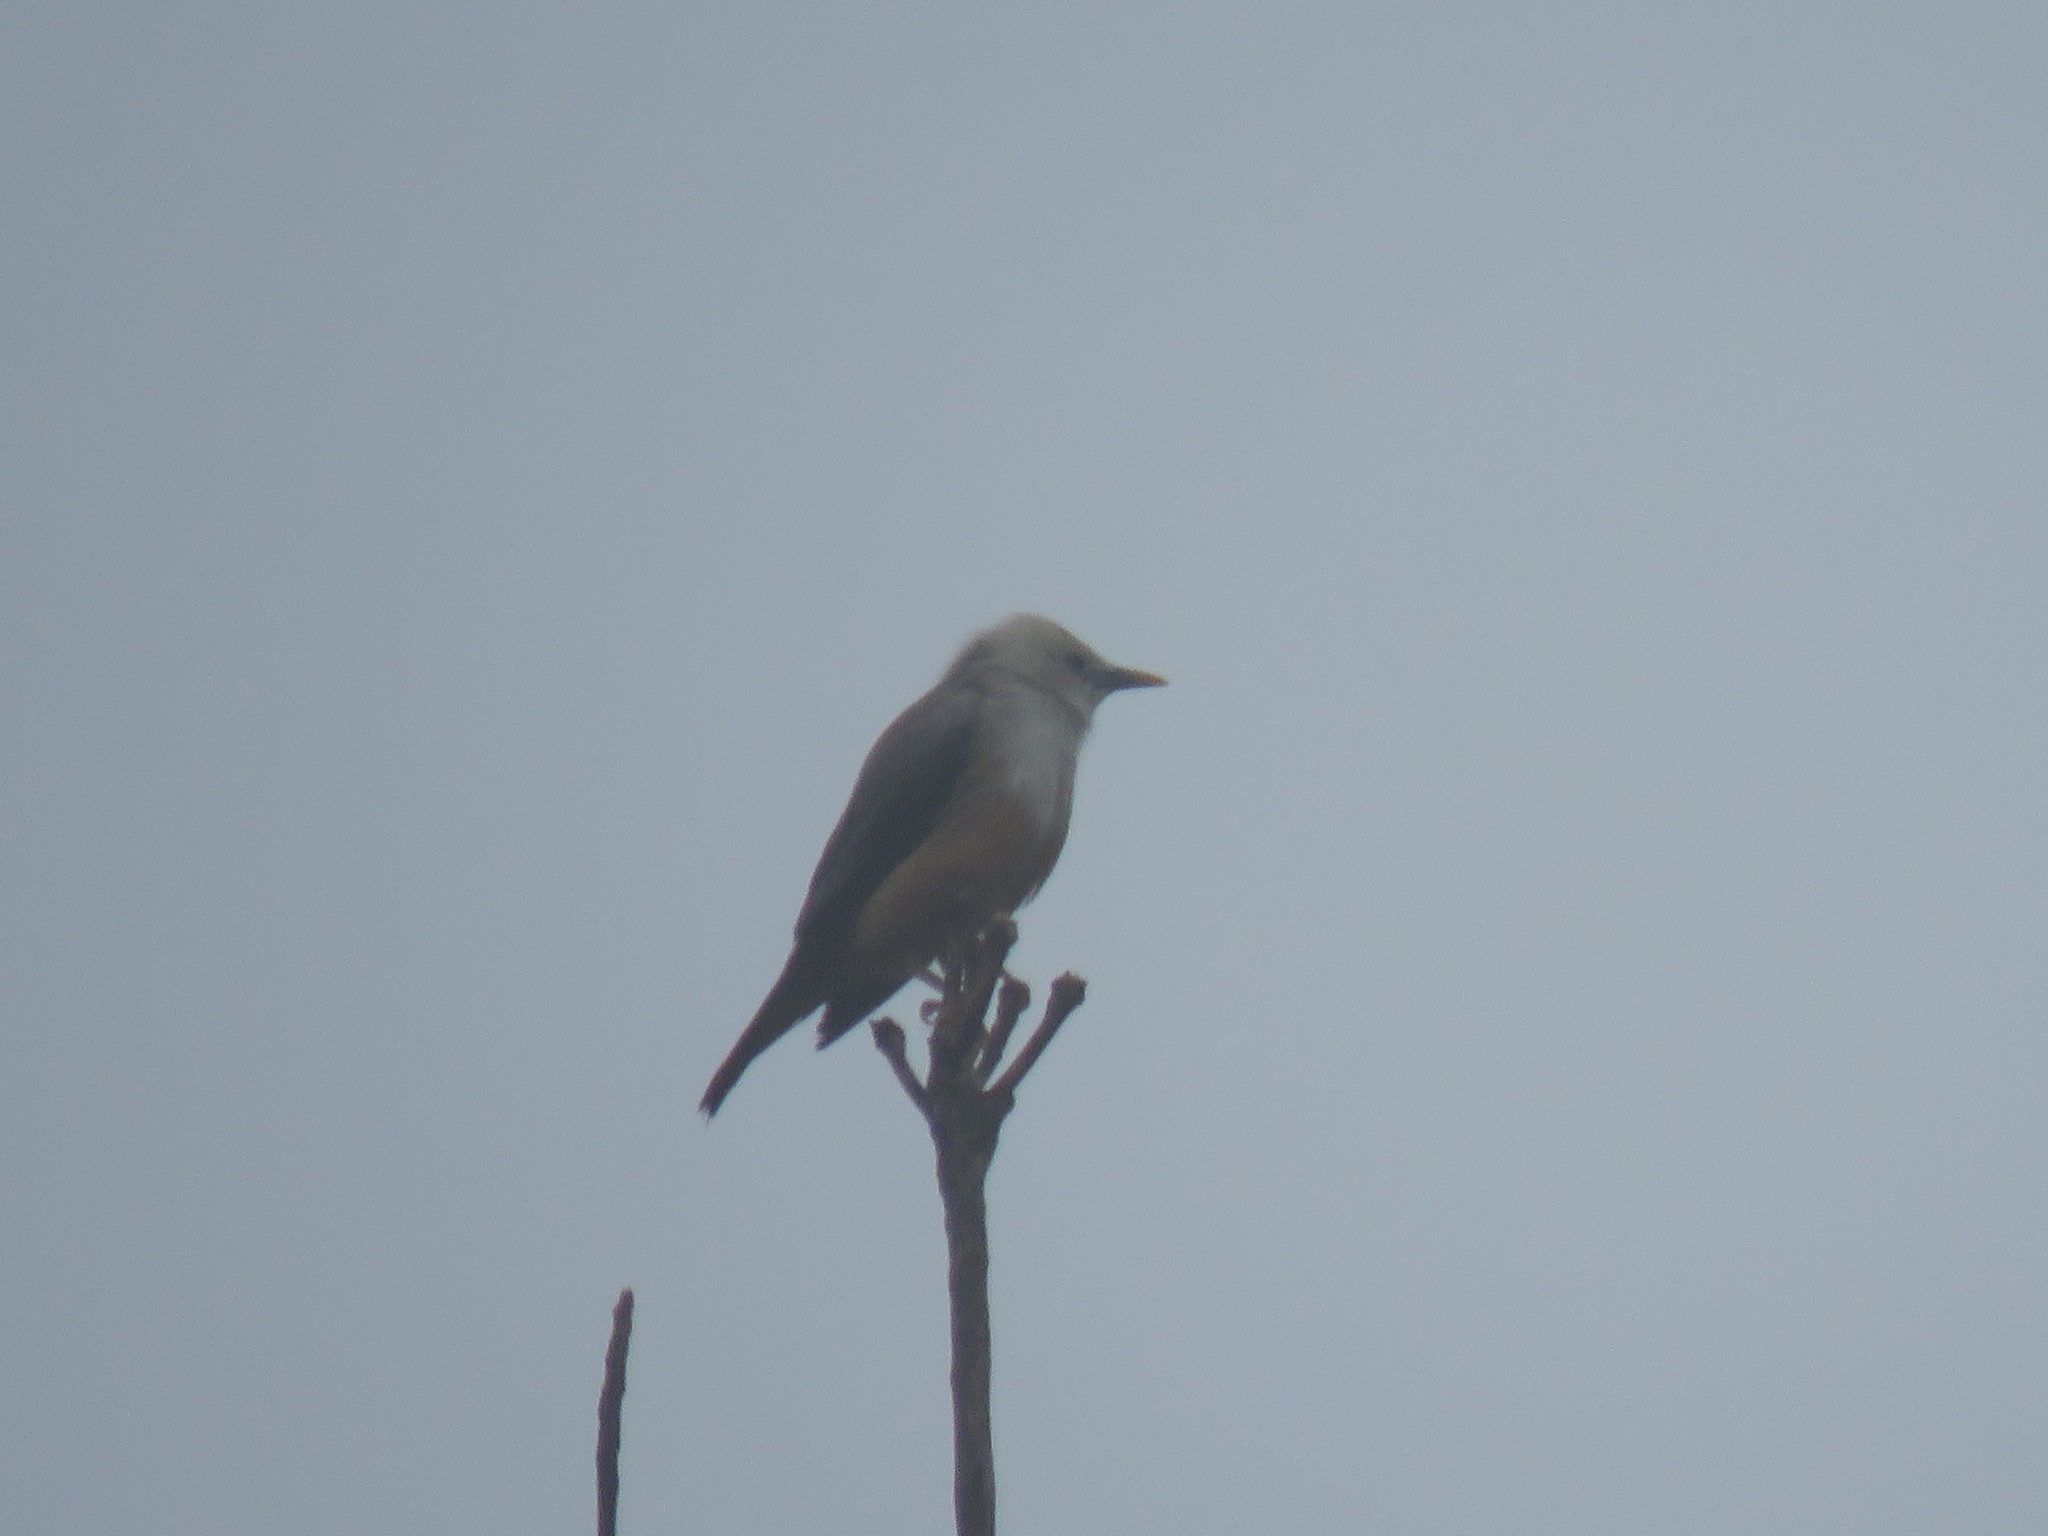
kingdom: Animalia
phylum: Chordata
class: Aves
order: Passeriformes
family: Sturnidae
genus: Sturnia
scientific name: Sturnia blythii
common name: Malabar starling
